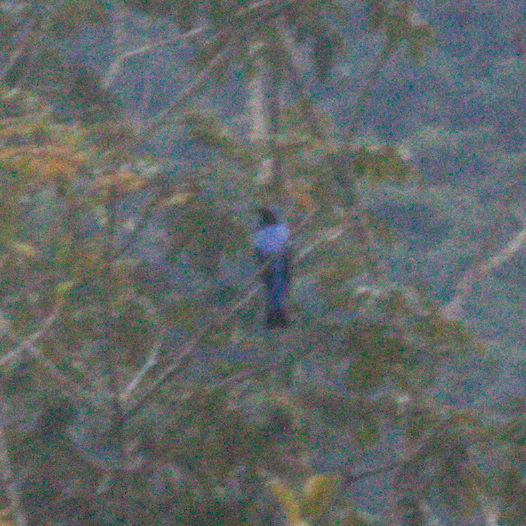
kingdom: Animalia
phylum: Chordata
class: Aves
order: Passeriformes
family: Irenidae
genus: Irena
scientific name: Irena puella
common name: Asian fairy-bluebird
